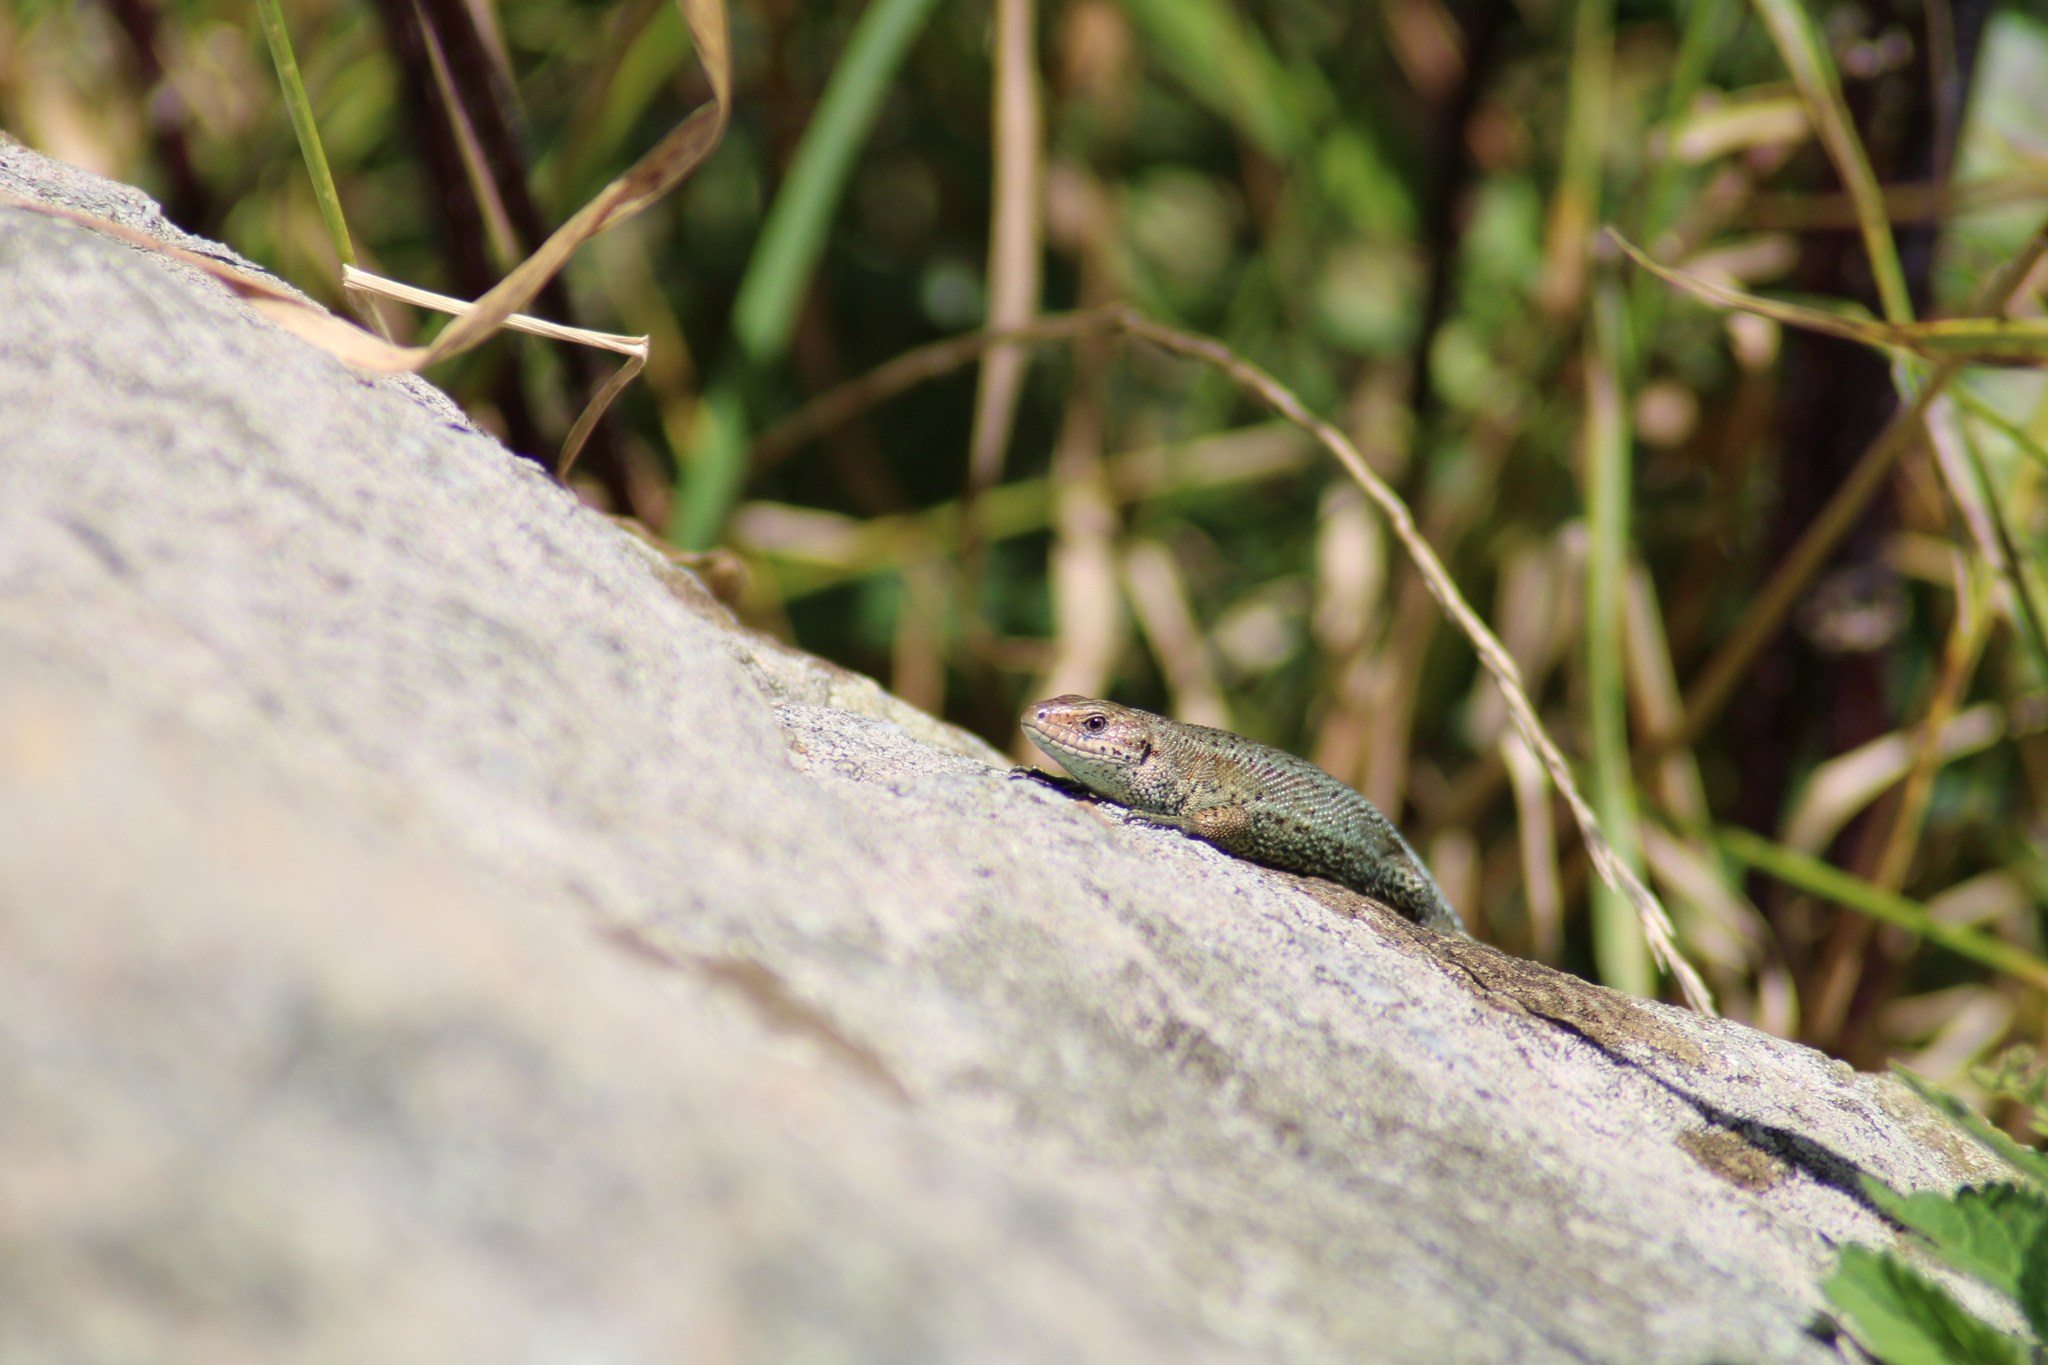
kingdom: Animalia
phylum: Chordata
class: Squamata
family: Lacertidae
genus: Zootoca
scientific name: Zootoca vivipara
